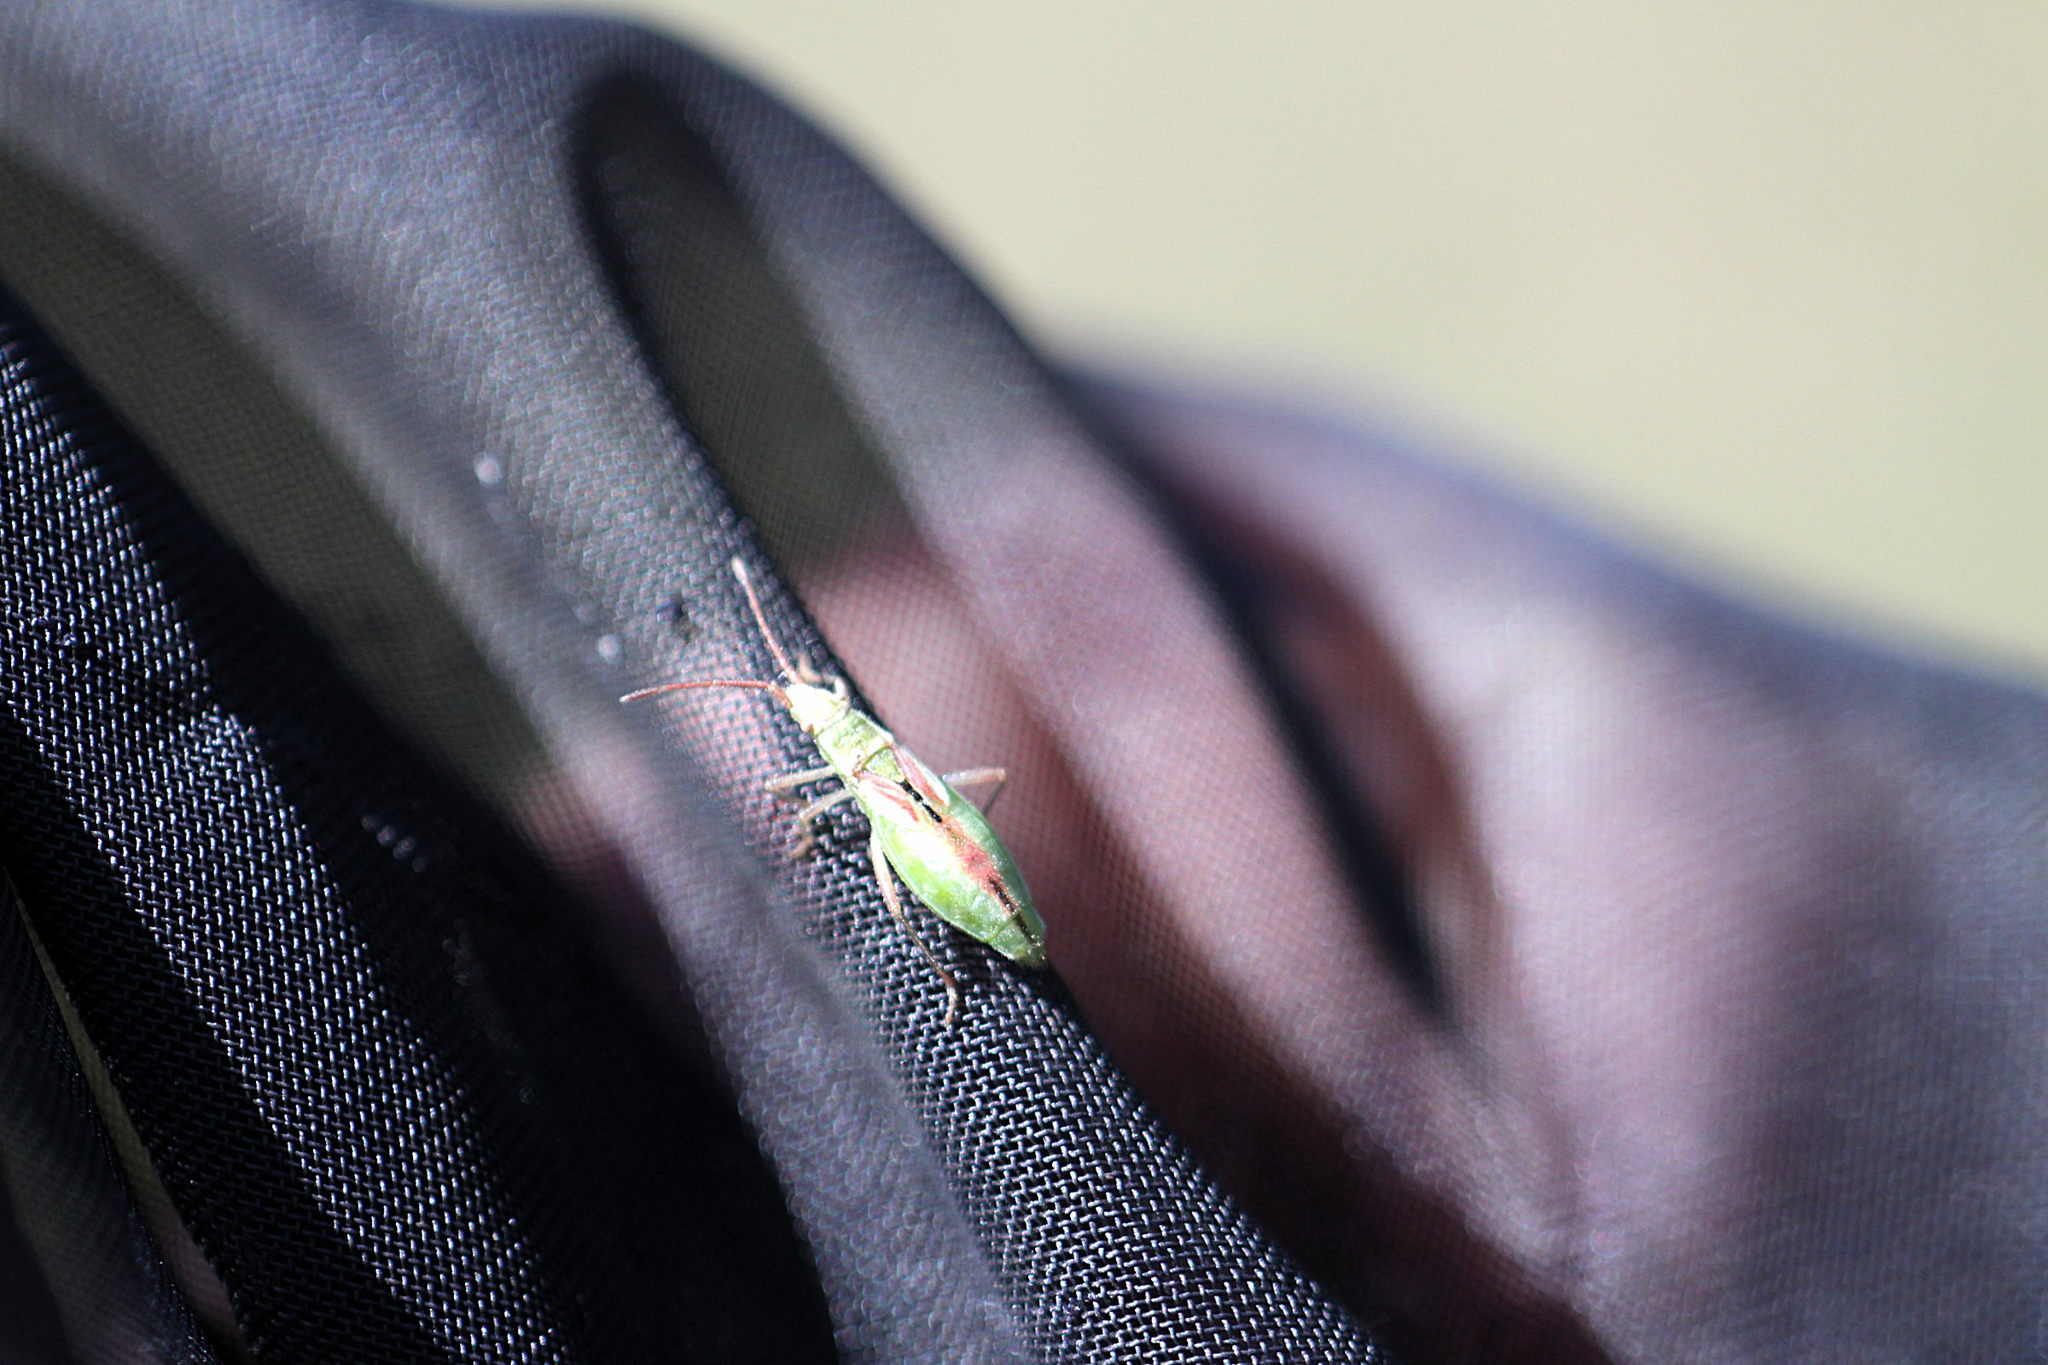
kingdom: Animalia
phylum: Arthropoda
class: Insecta
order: Hemiptera
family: Rhopalidae
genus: Myrmus
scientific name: Myrmus miriformis
